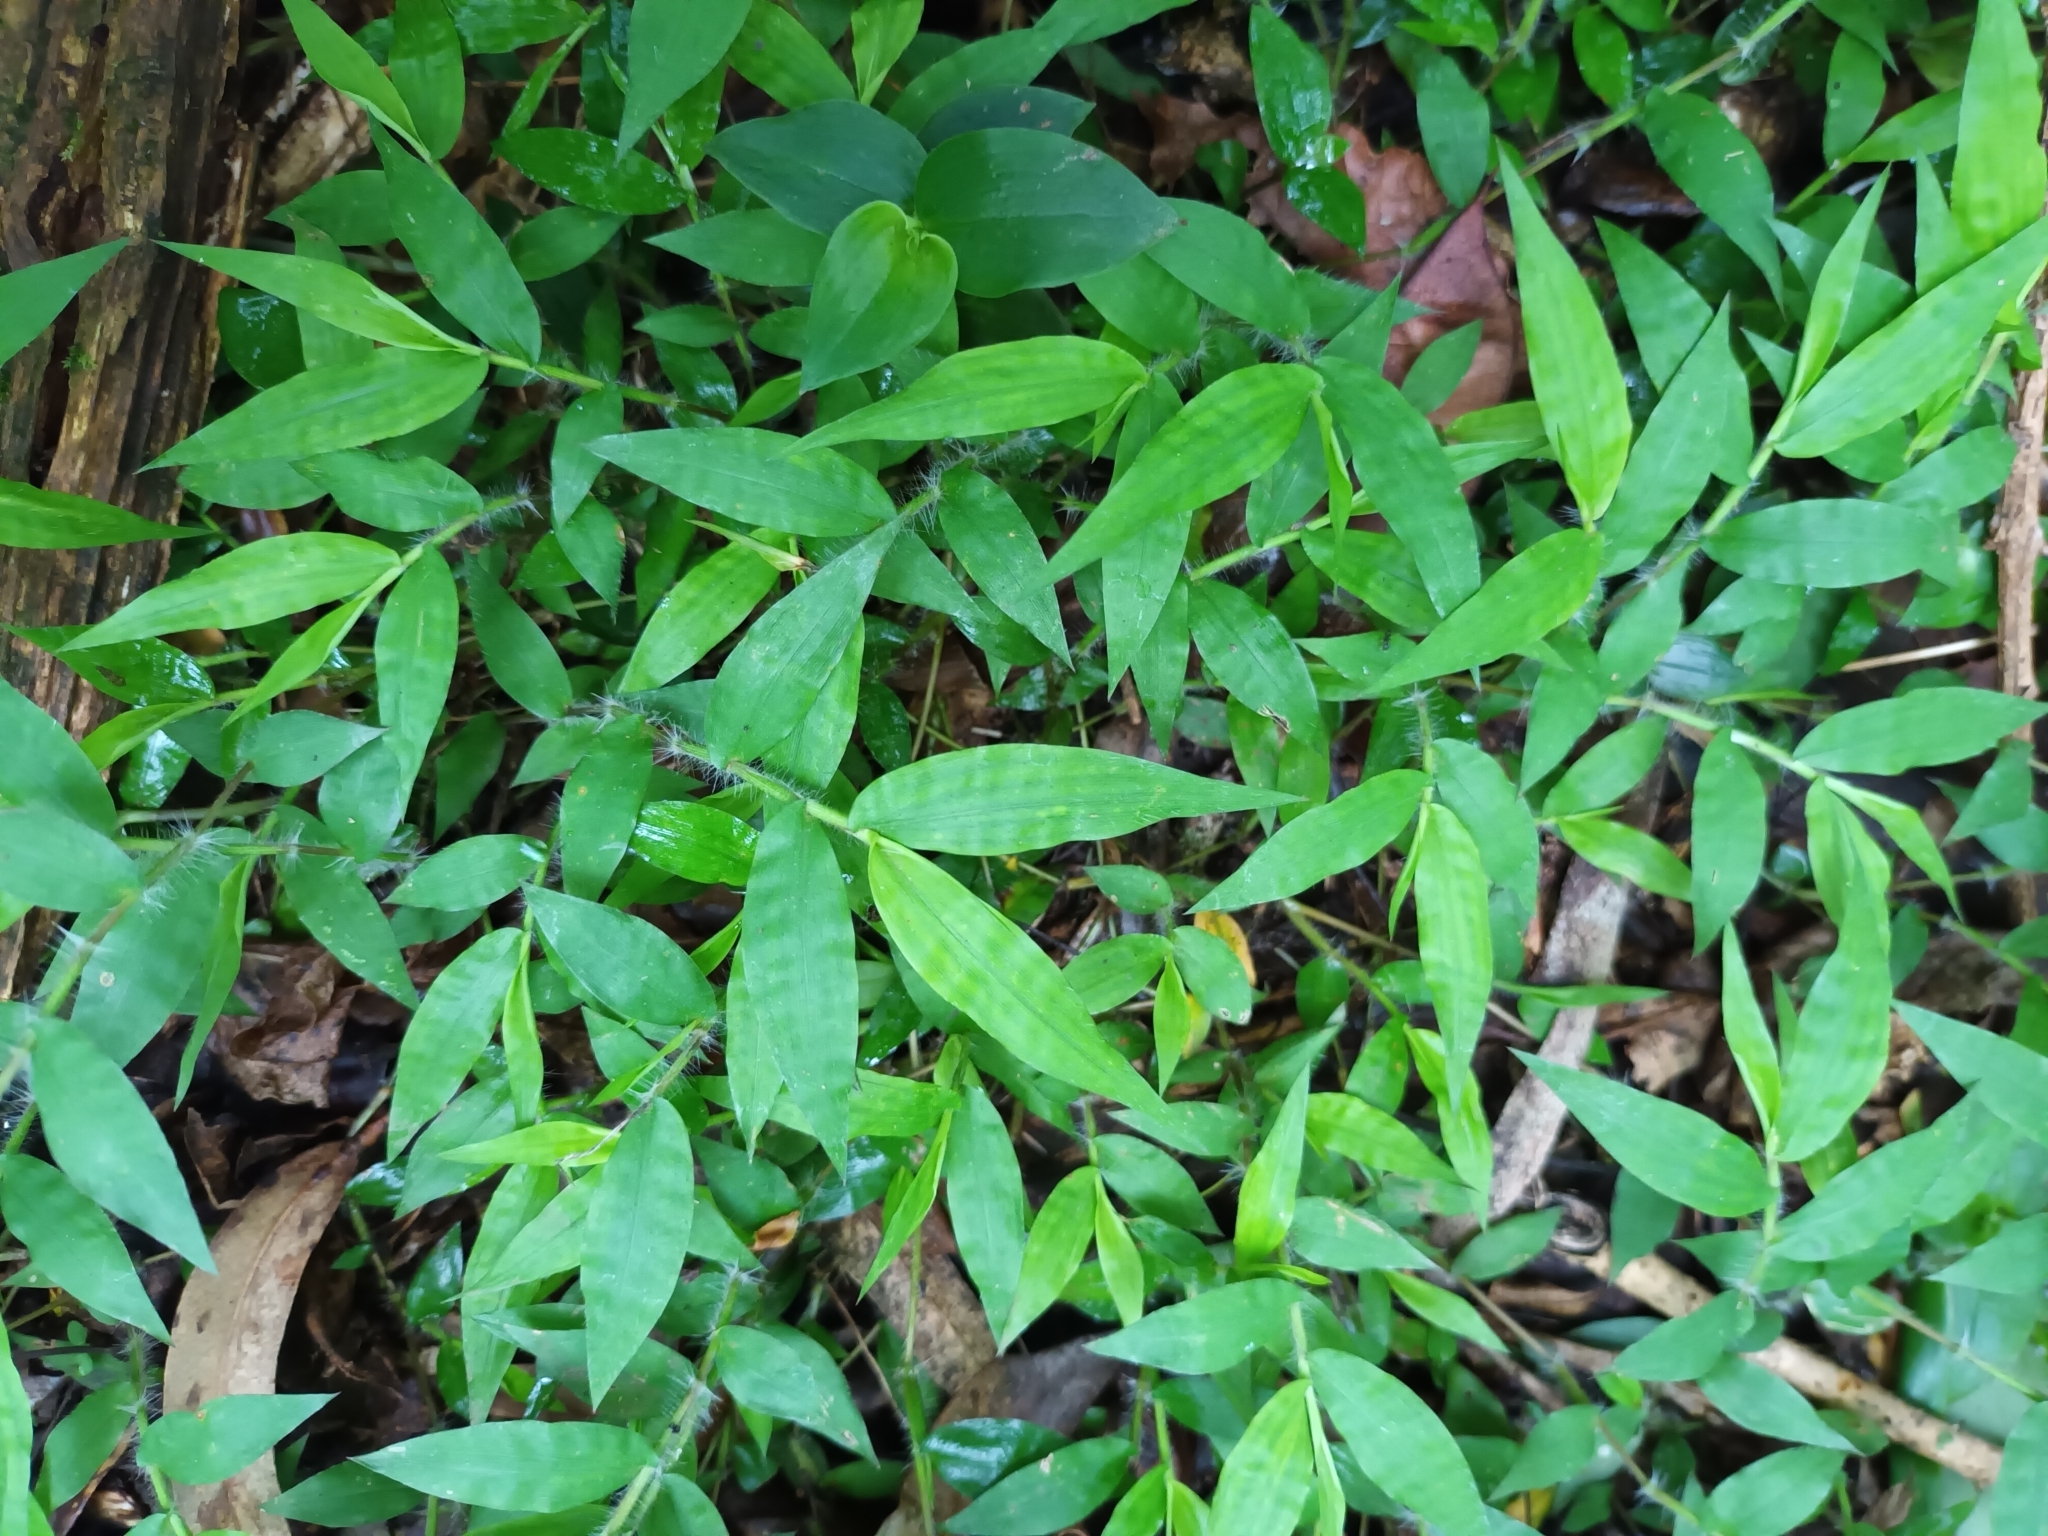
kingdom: Plantae
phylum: Tracheophyta
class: Liliopsida
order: Poales
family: Poaceae
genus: Oplismenus
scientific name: Oplismenus hirtellus
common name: Basketgrass
